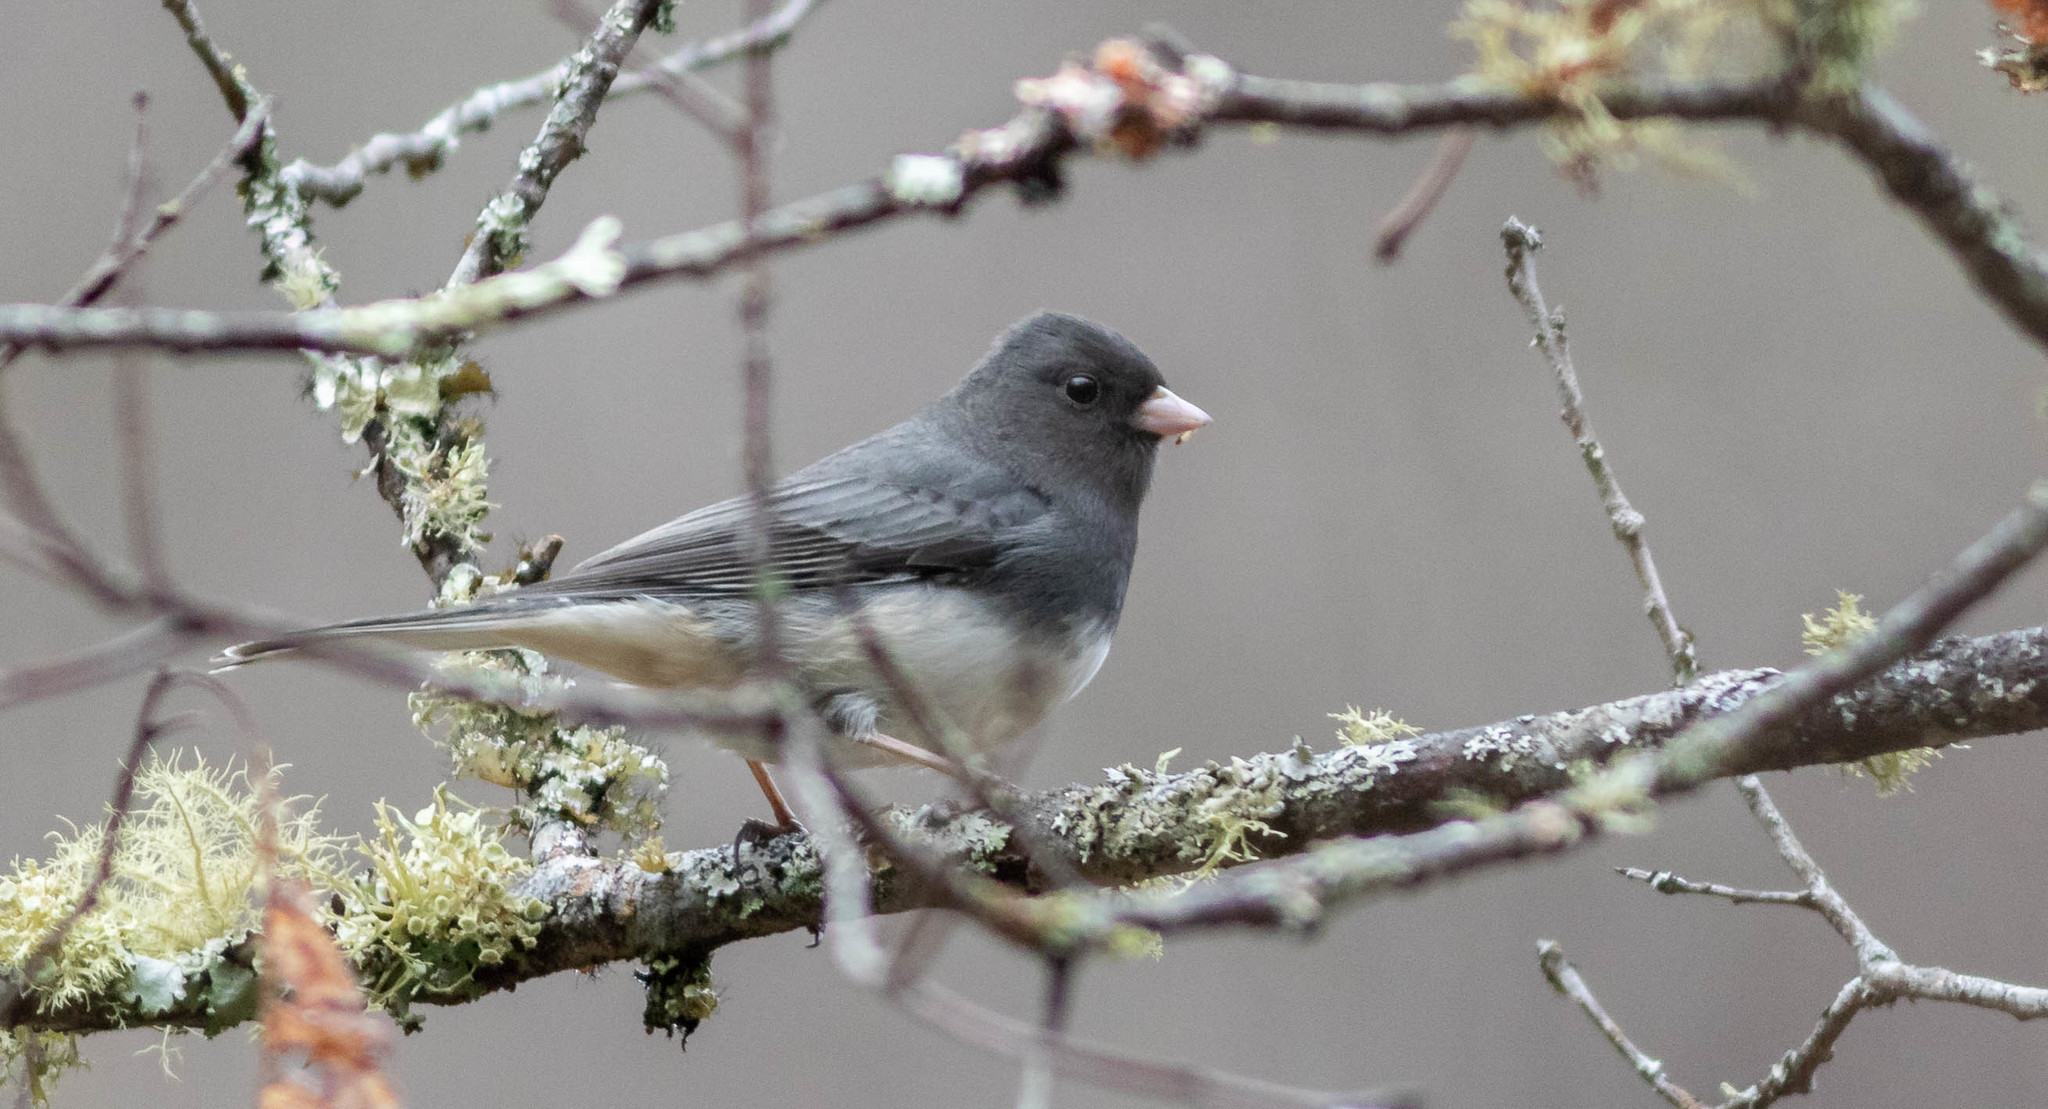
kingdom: Animalia
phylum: Chordata
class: Aves
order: Passeriformes
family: Passerellidae
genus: Junco
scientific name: Junco hyemalis
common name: Dark-eyed junco
